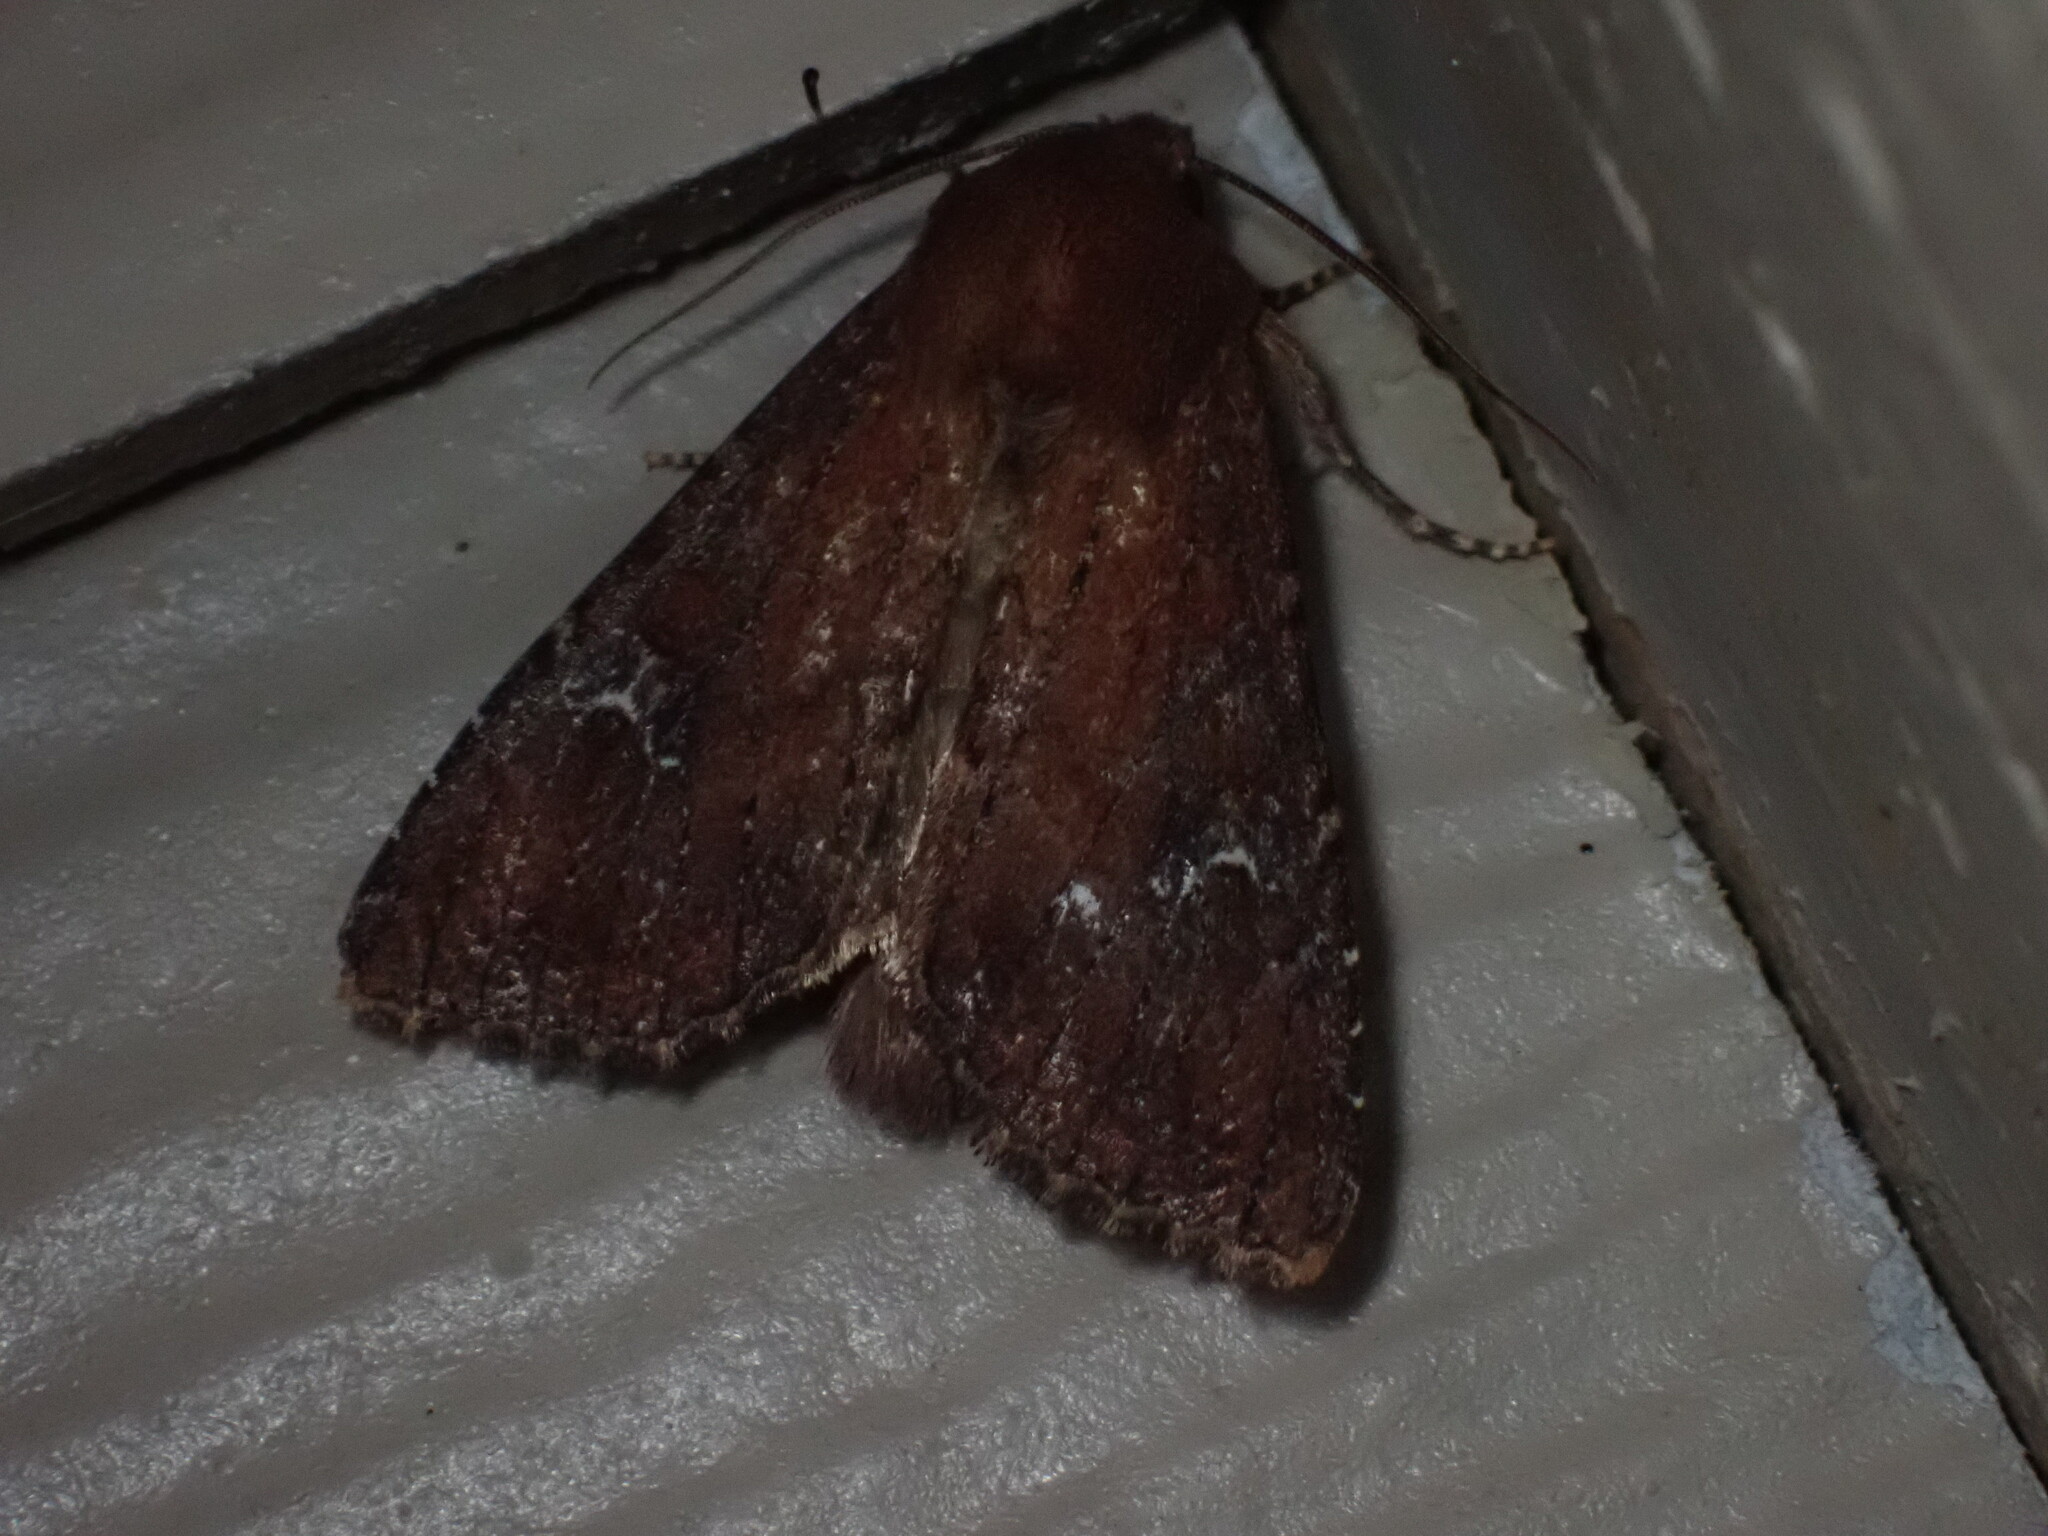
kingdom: Animalia
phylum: Arthropoda
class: Insecta
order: Lepidoptera
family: Noctuidae
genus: Apamea
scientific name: Apamea scoparia
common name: Faint-spotted quaker
